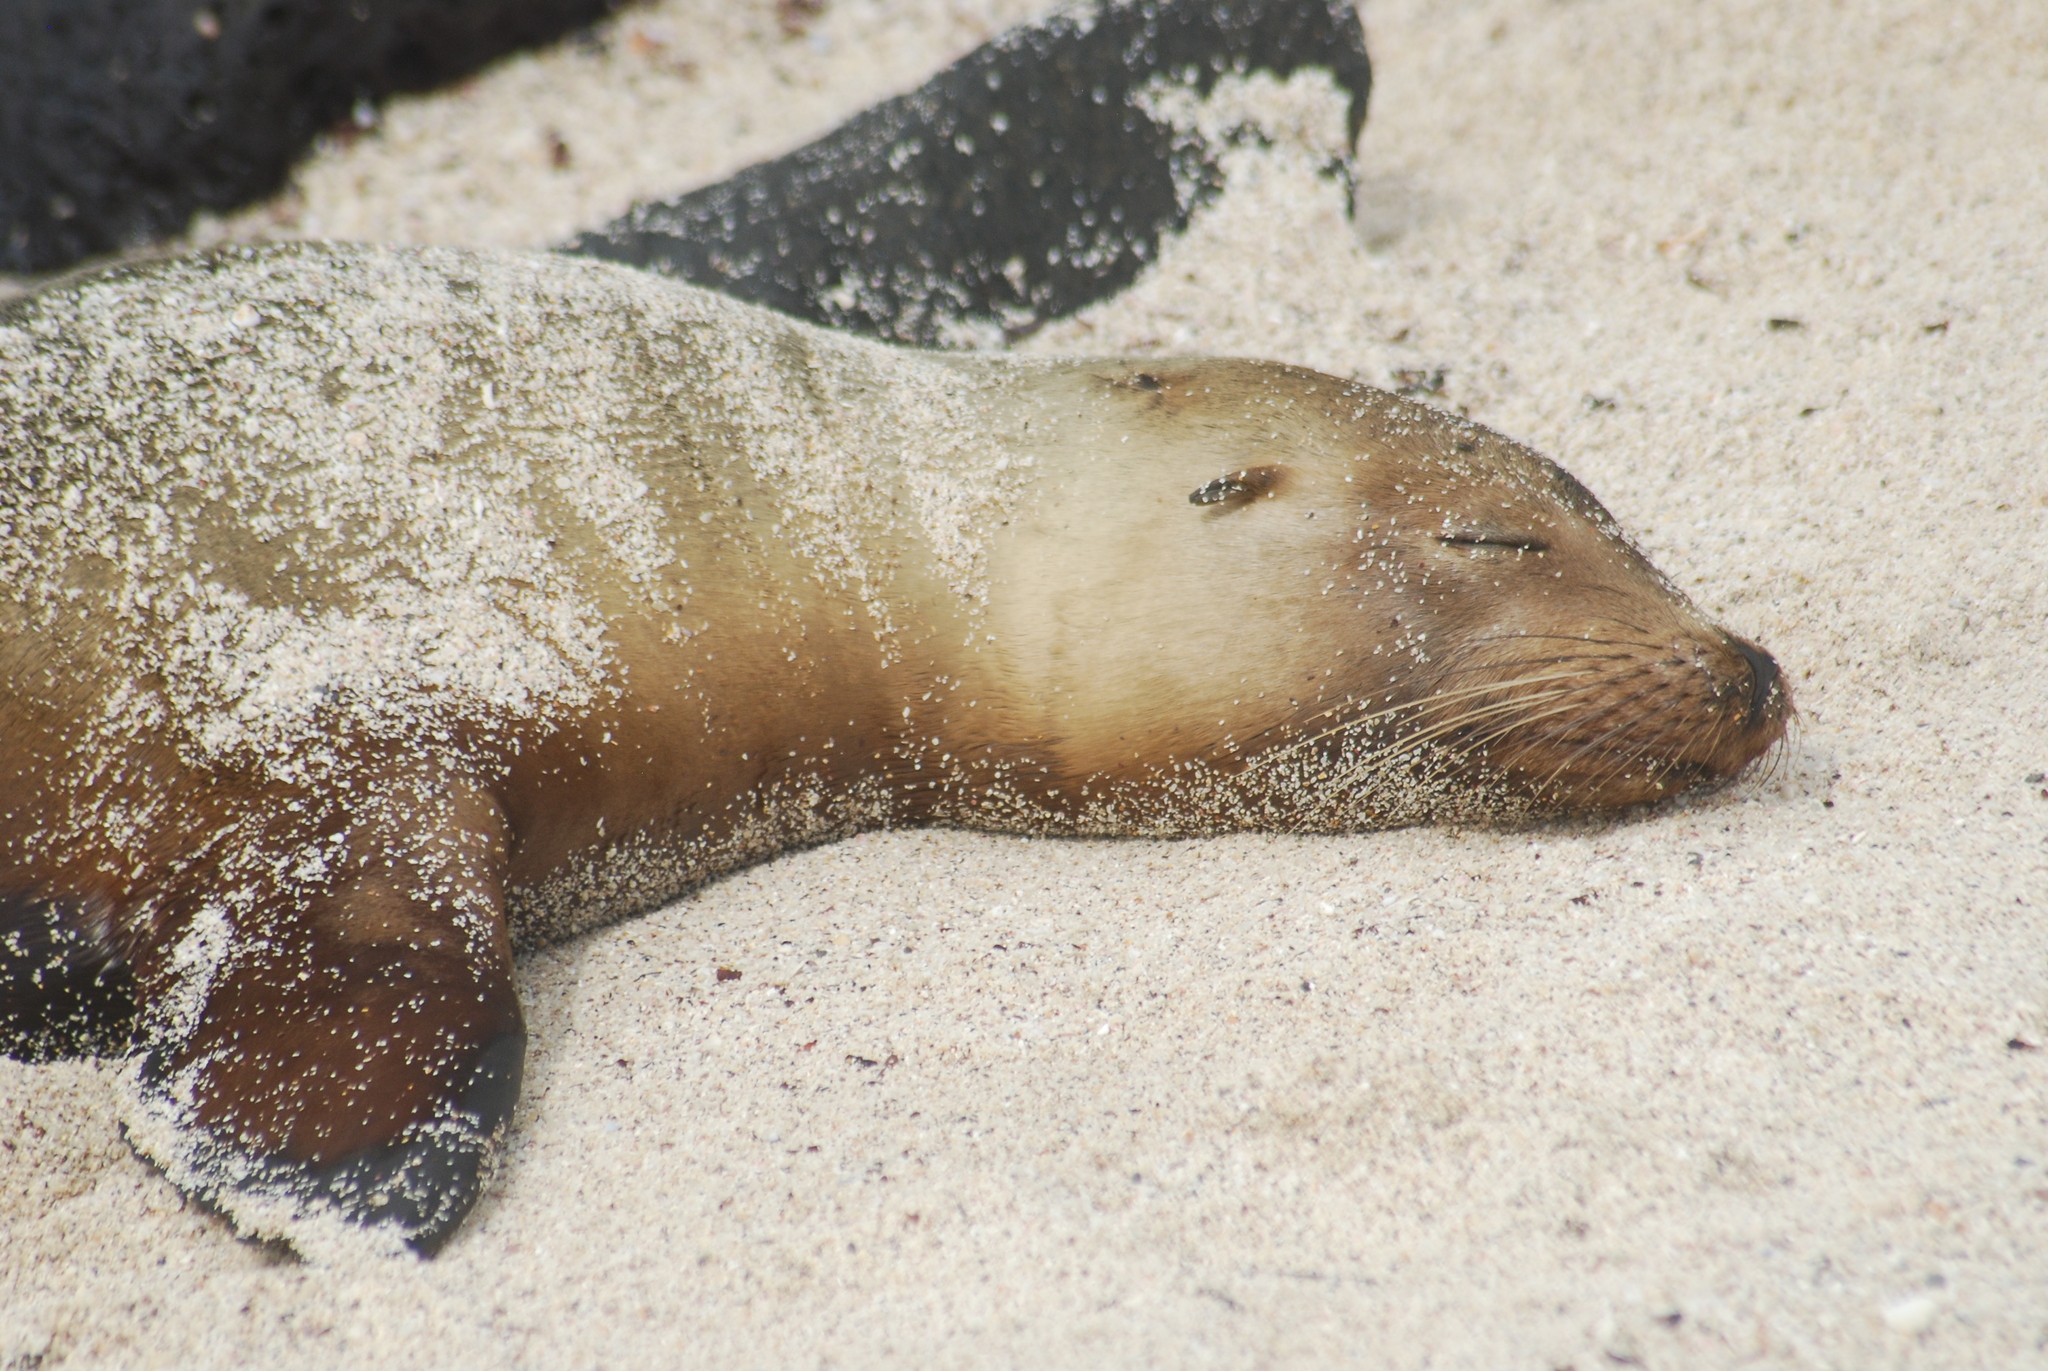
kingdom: Animalia
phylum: Chordata
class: Mammalia
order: Carnivora
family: Otariidae
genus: Zalophus
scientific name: Zalophus wollebaeki
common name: Galapagos sea lion
